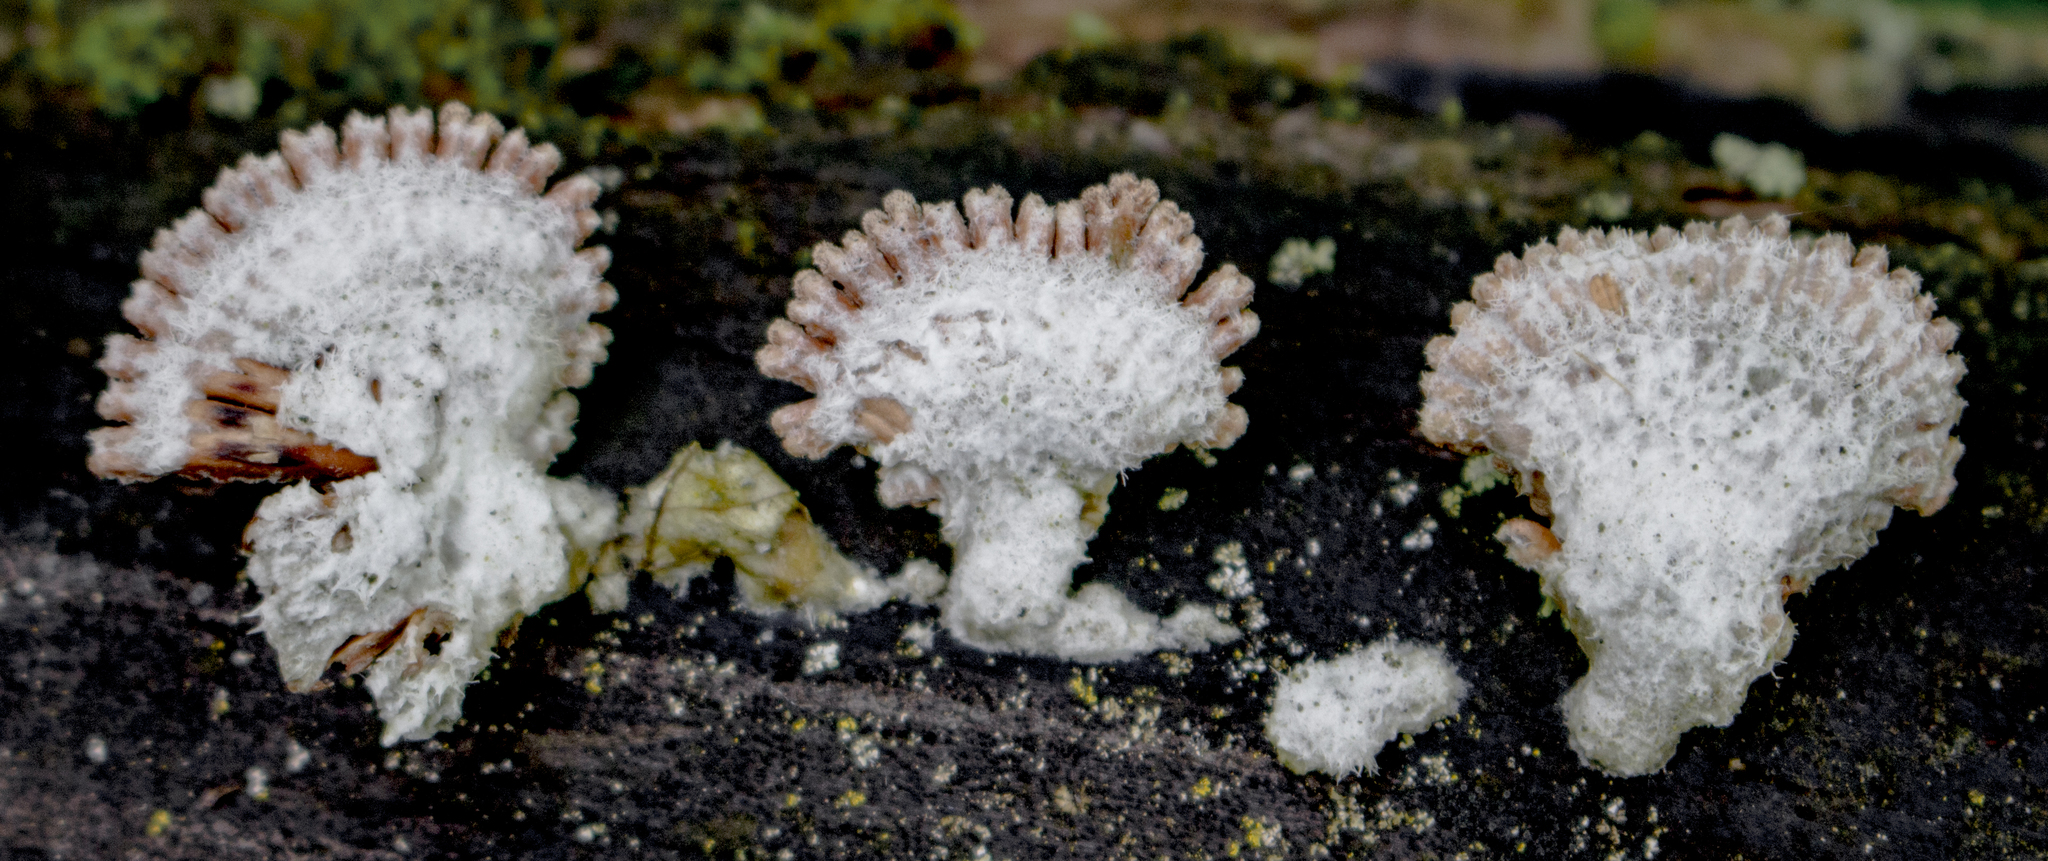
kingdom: Fungi
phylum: Basidiomycota
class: Agaricomycetes
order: Agaricales
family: Schizophyllaceae
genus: Schizophyllum
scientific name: Schizophyllum commune
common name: Common porecrust
